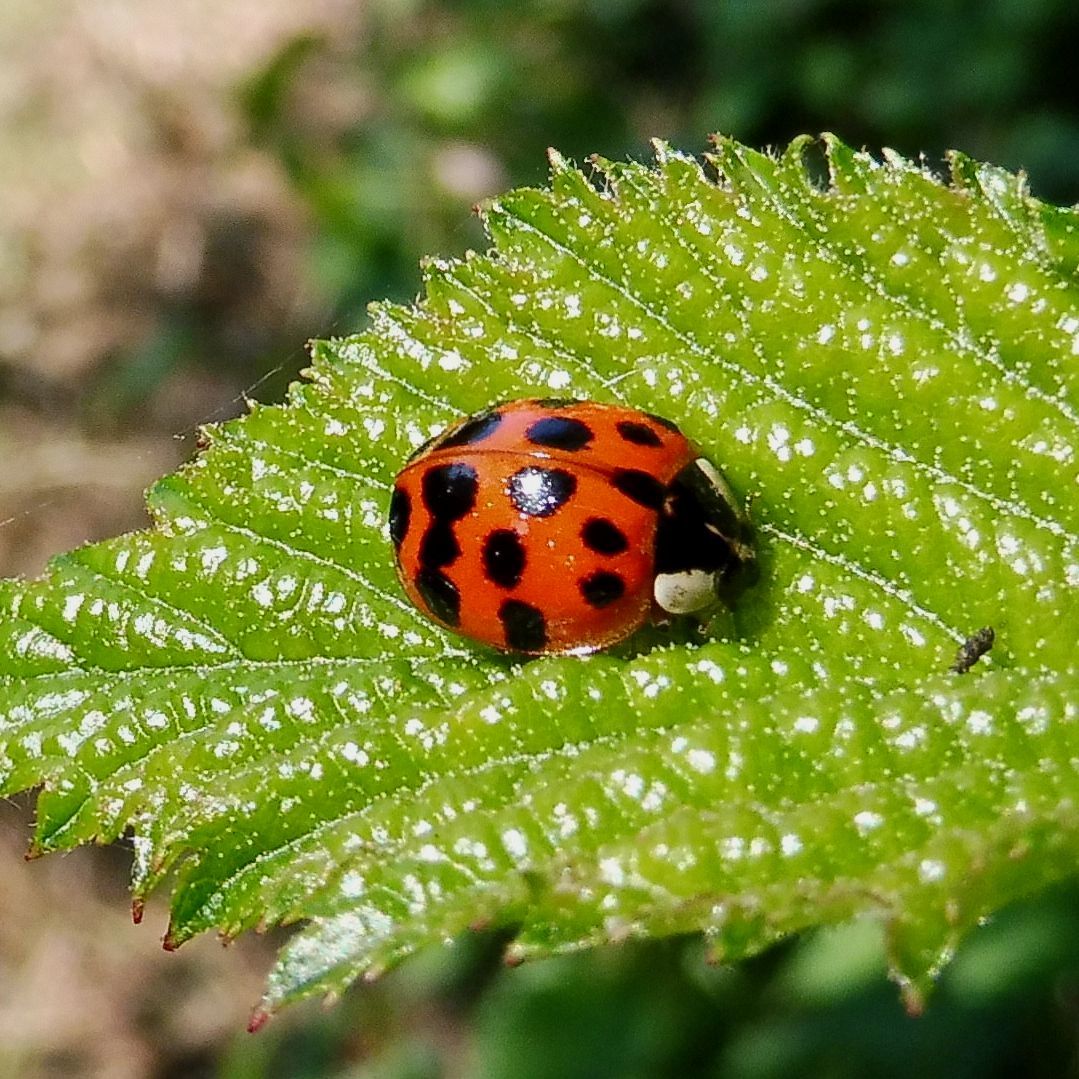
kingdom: Animalia
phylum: Arthropoda
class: Insecta
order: Coleoptera
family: Coccinellidae
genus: Harmonia
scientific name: Harmonia axyridis
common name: Harlequin ladybird
